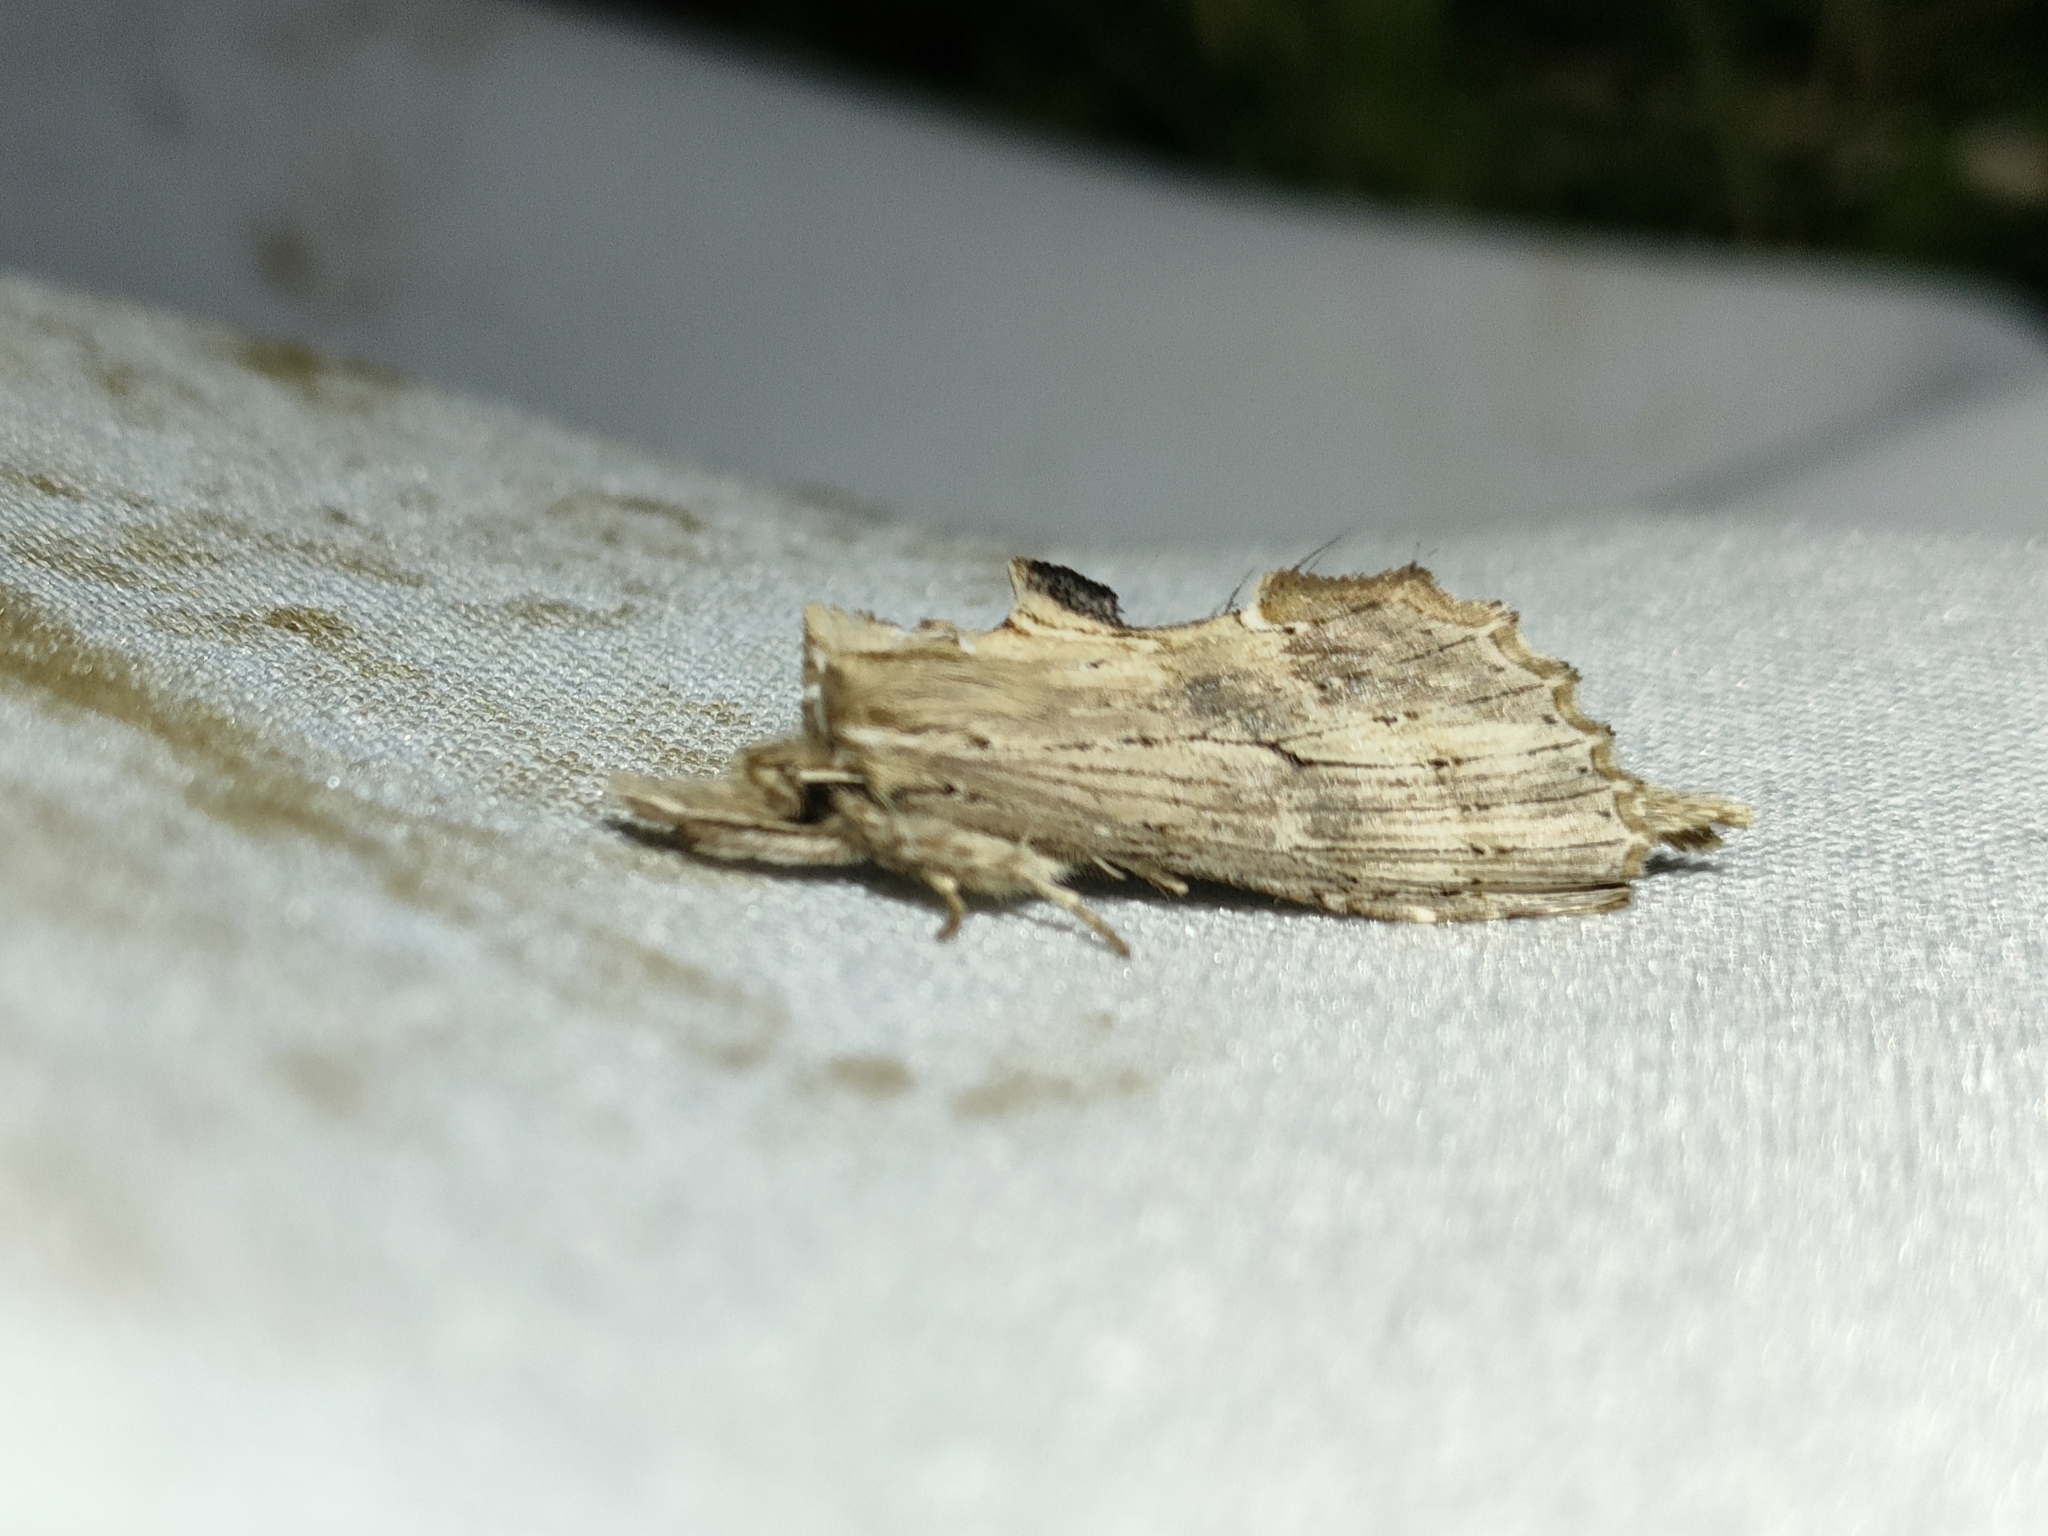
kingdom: Animalia
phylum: Arthropoda
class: Insecta
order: Lepidoptera
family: Notodontidae
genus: Pterostoma
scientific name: Pterostoma palpina
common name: Pale prominent
